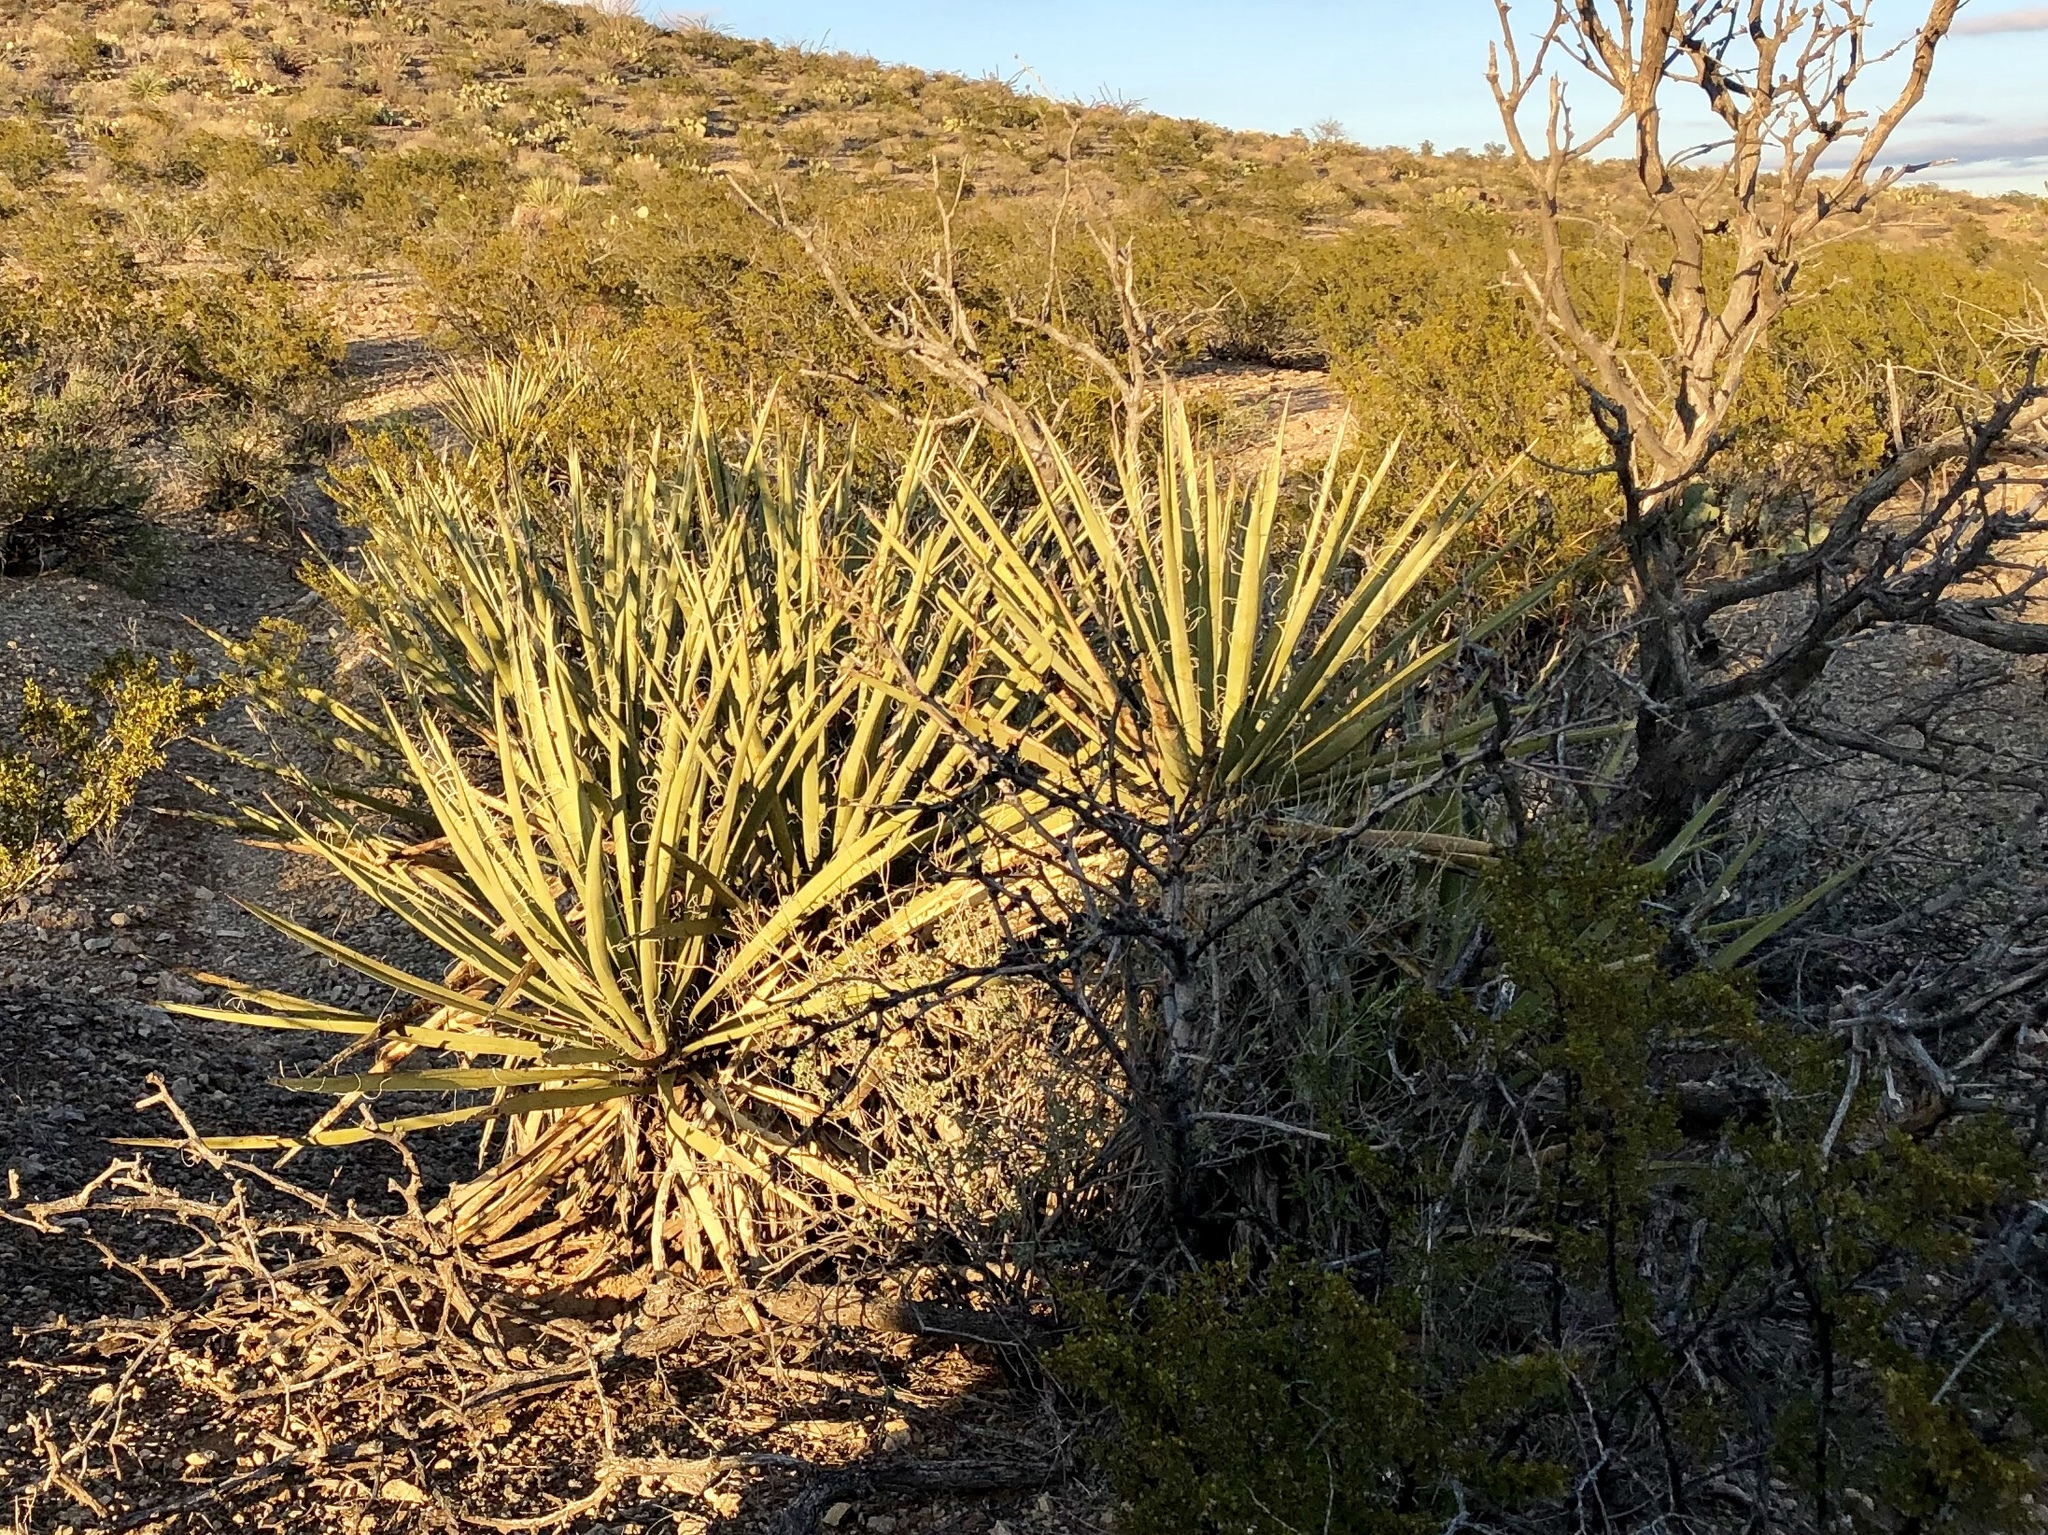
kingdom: Plantae
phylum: Tracheophyta
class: Liliopsida
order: Asparagales
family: Asparagaceae
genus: Yucca
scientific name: Yucca baccata
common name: Banana yucca
